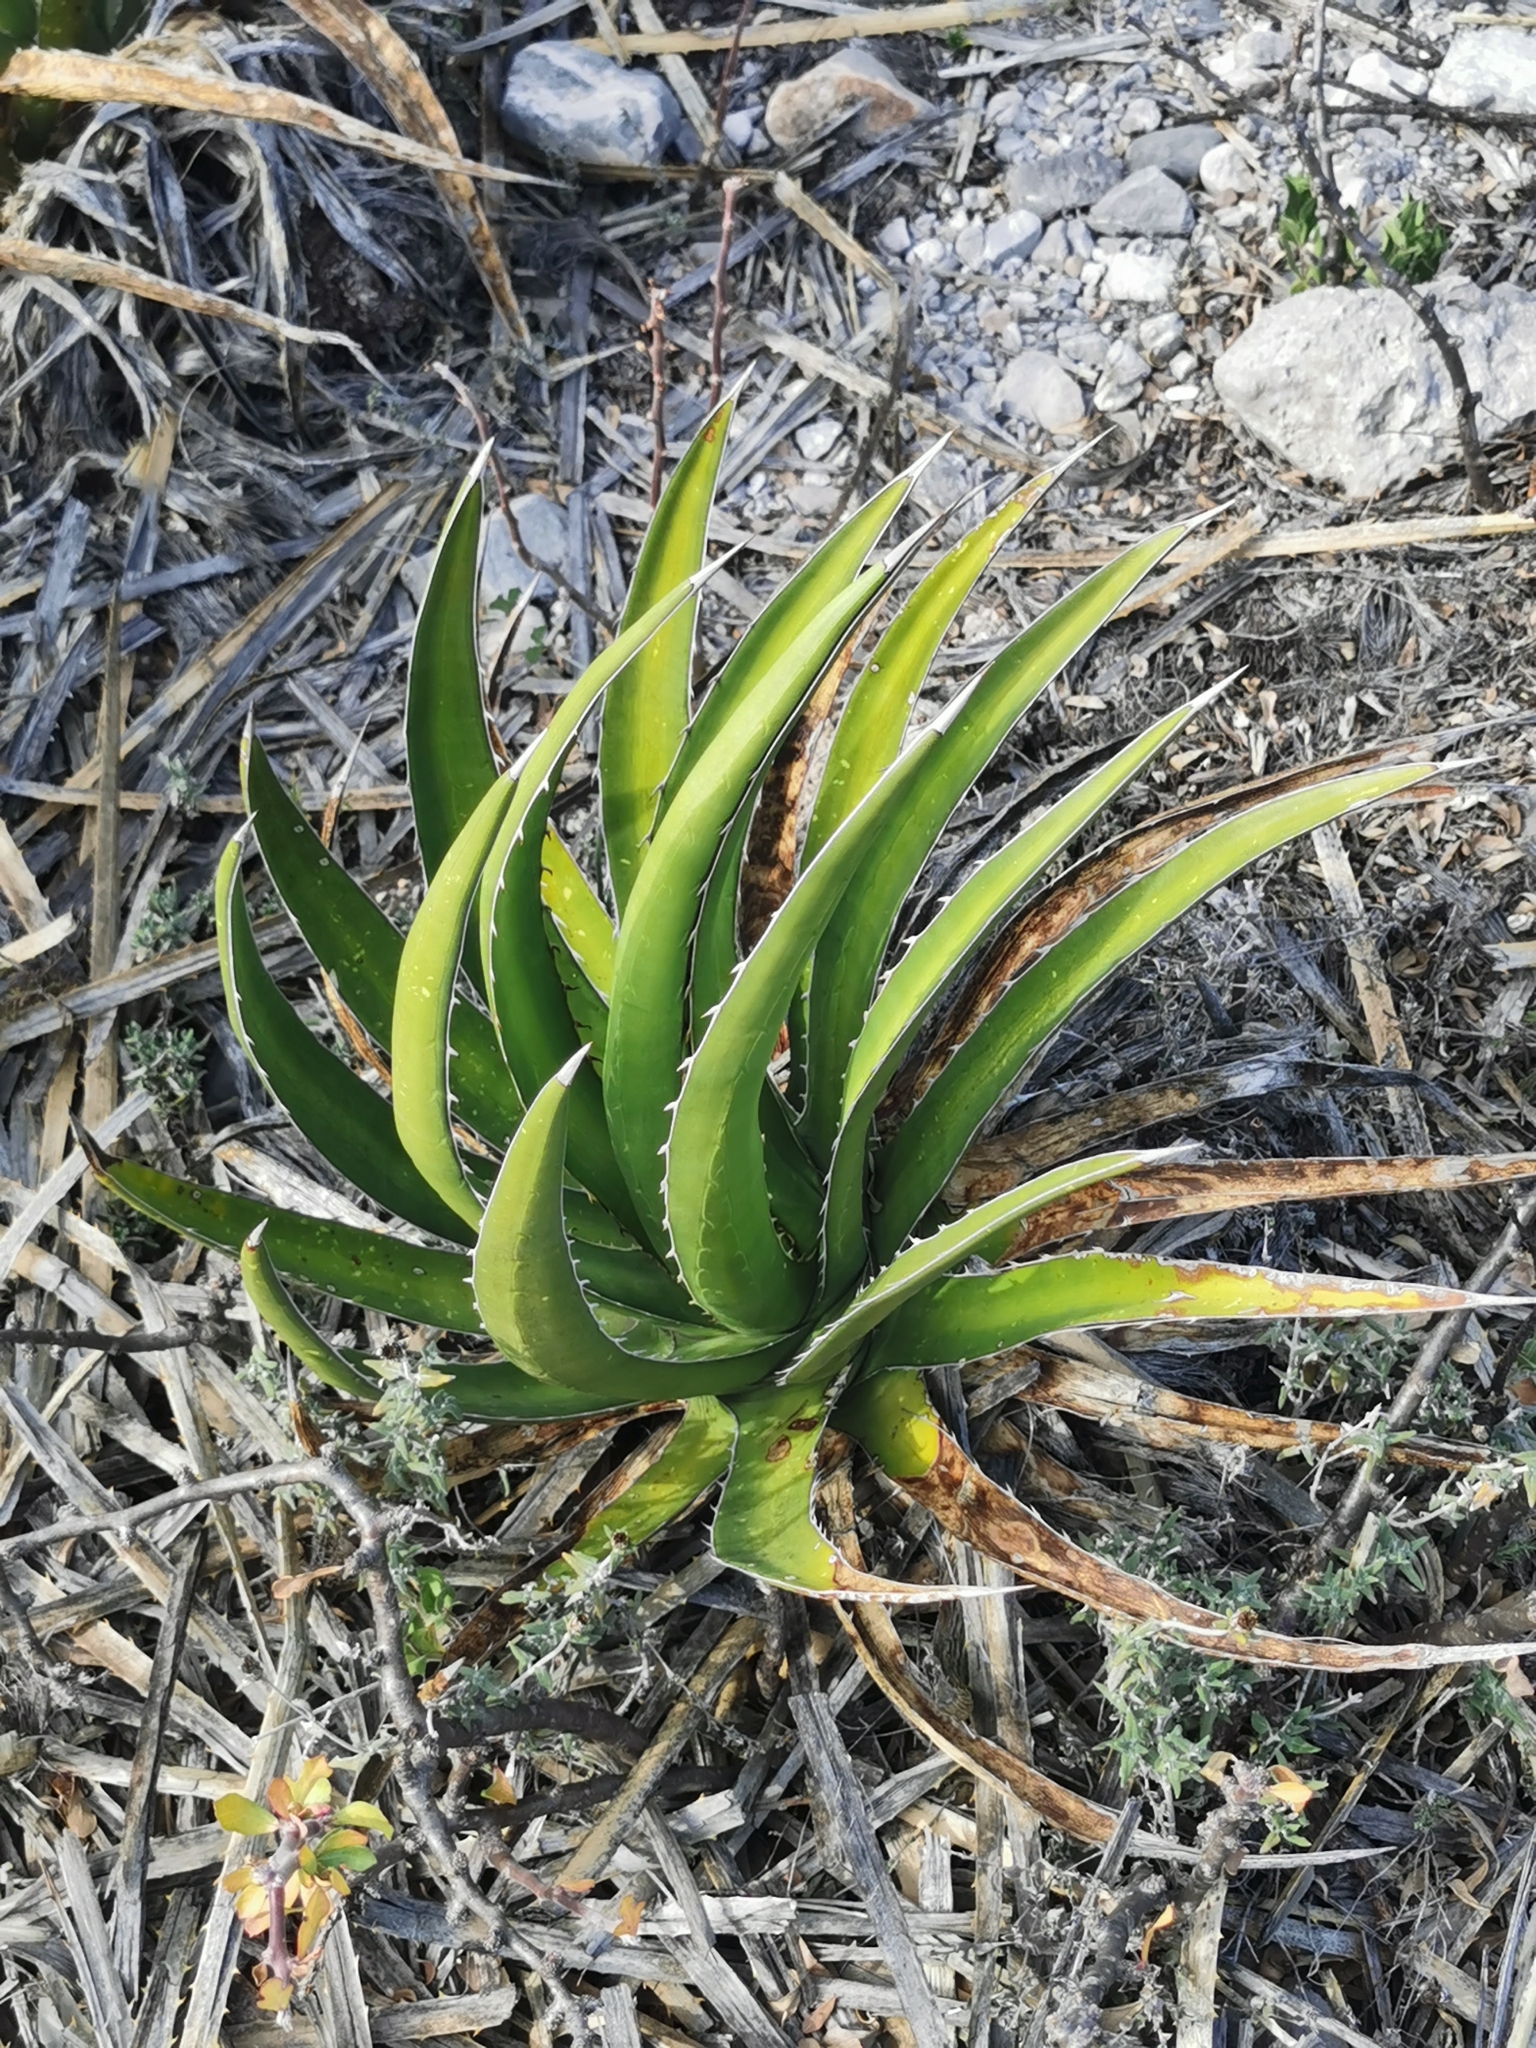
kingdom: Plantae
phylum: Tracheophyta
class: Liliopsida
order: Asparagales
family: Asparagaceae
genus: Agave
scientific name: Agave lechuguilla
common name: Lecheguilla agave
